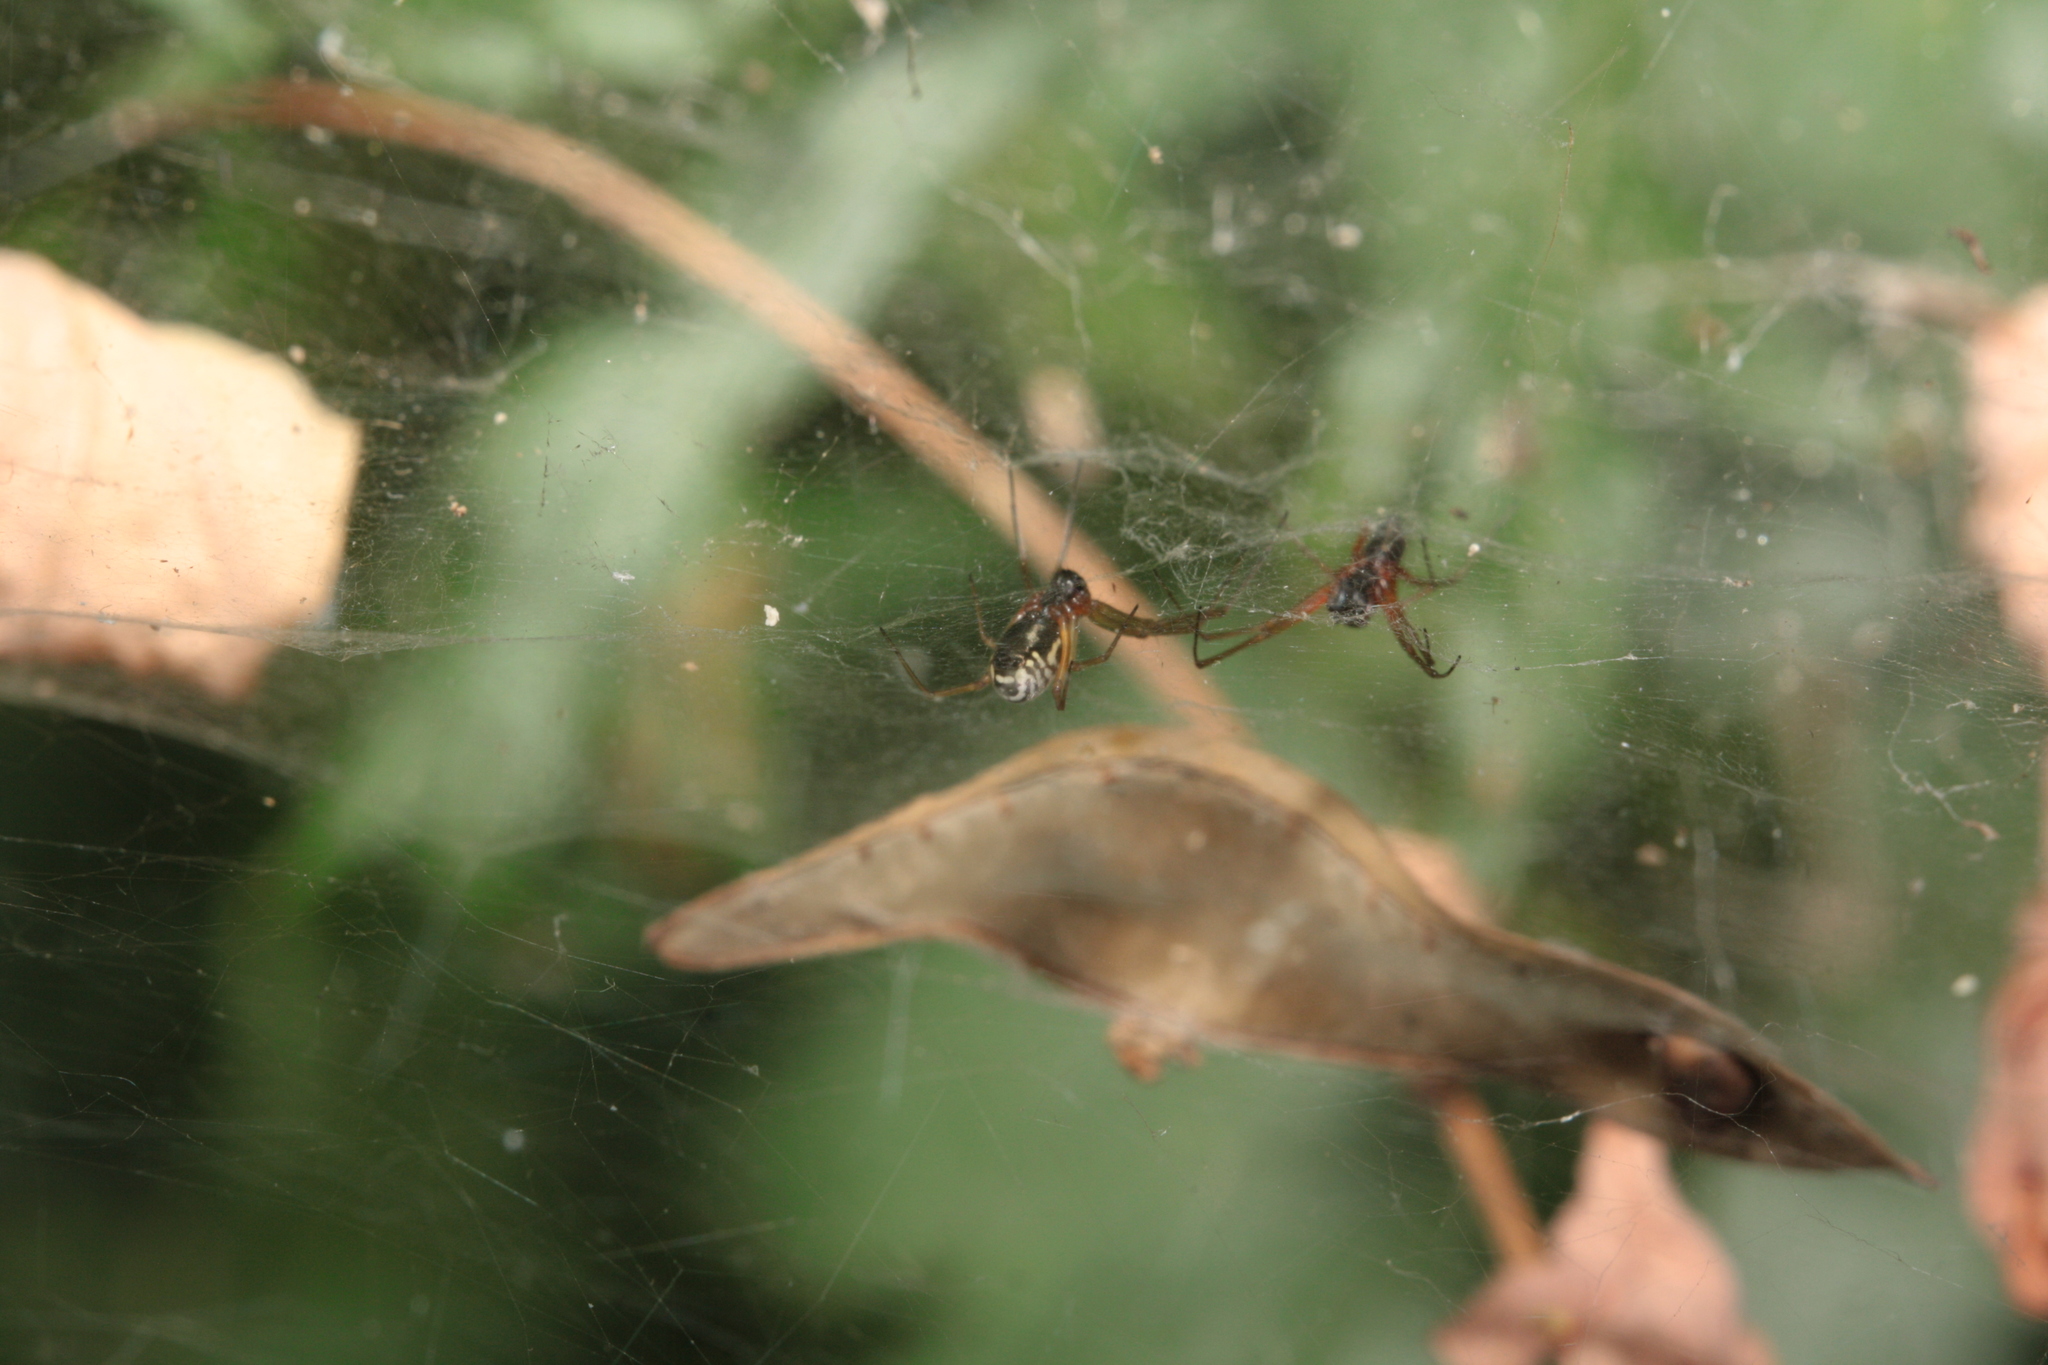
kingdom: Animalia
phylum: Arthropoda
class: Arachnida
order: Araneae
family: Linyphiidae
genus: Frontinellina
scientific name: Frontinellina frutetorum
